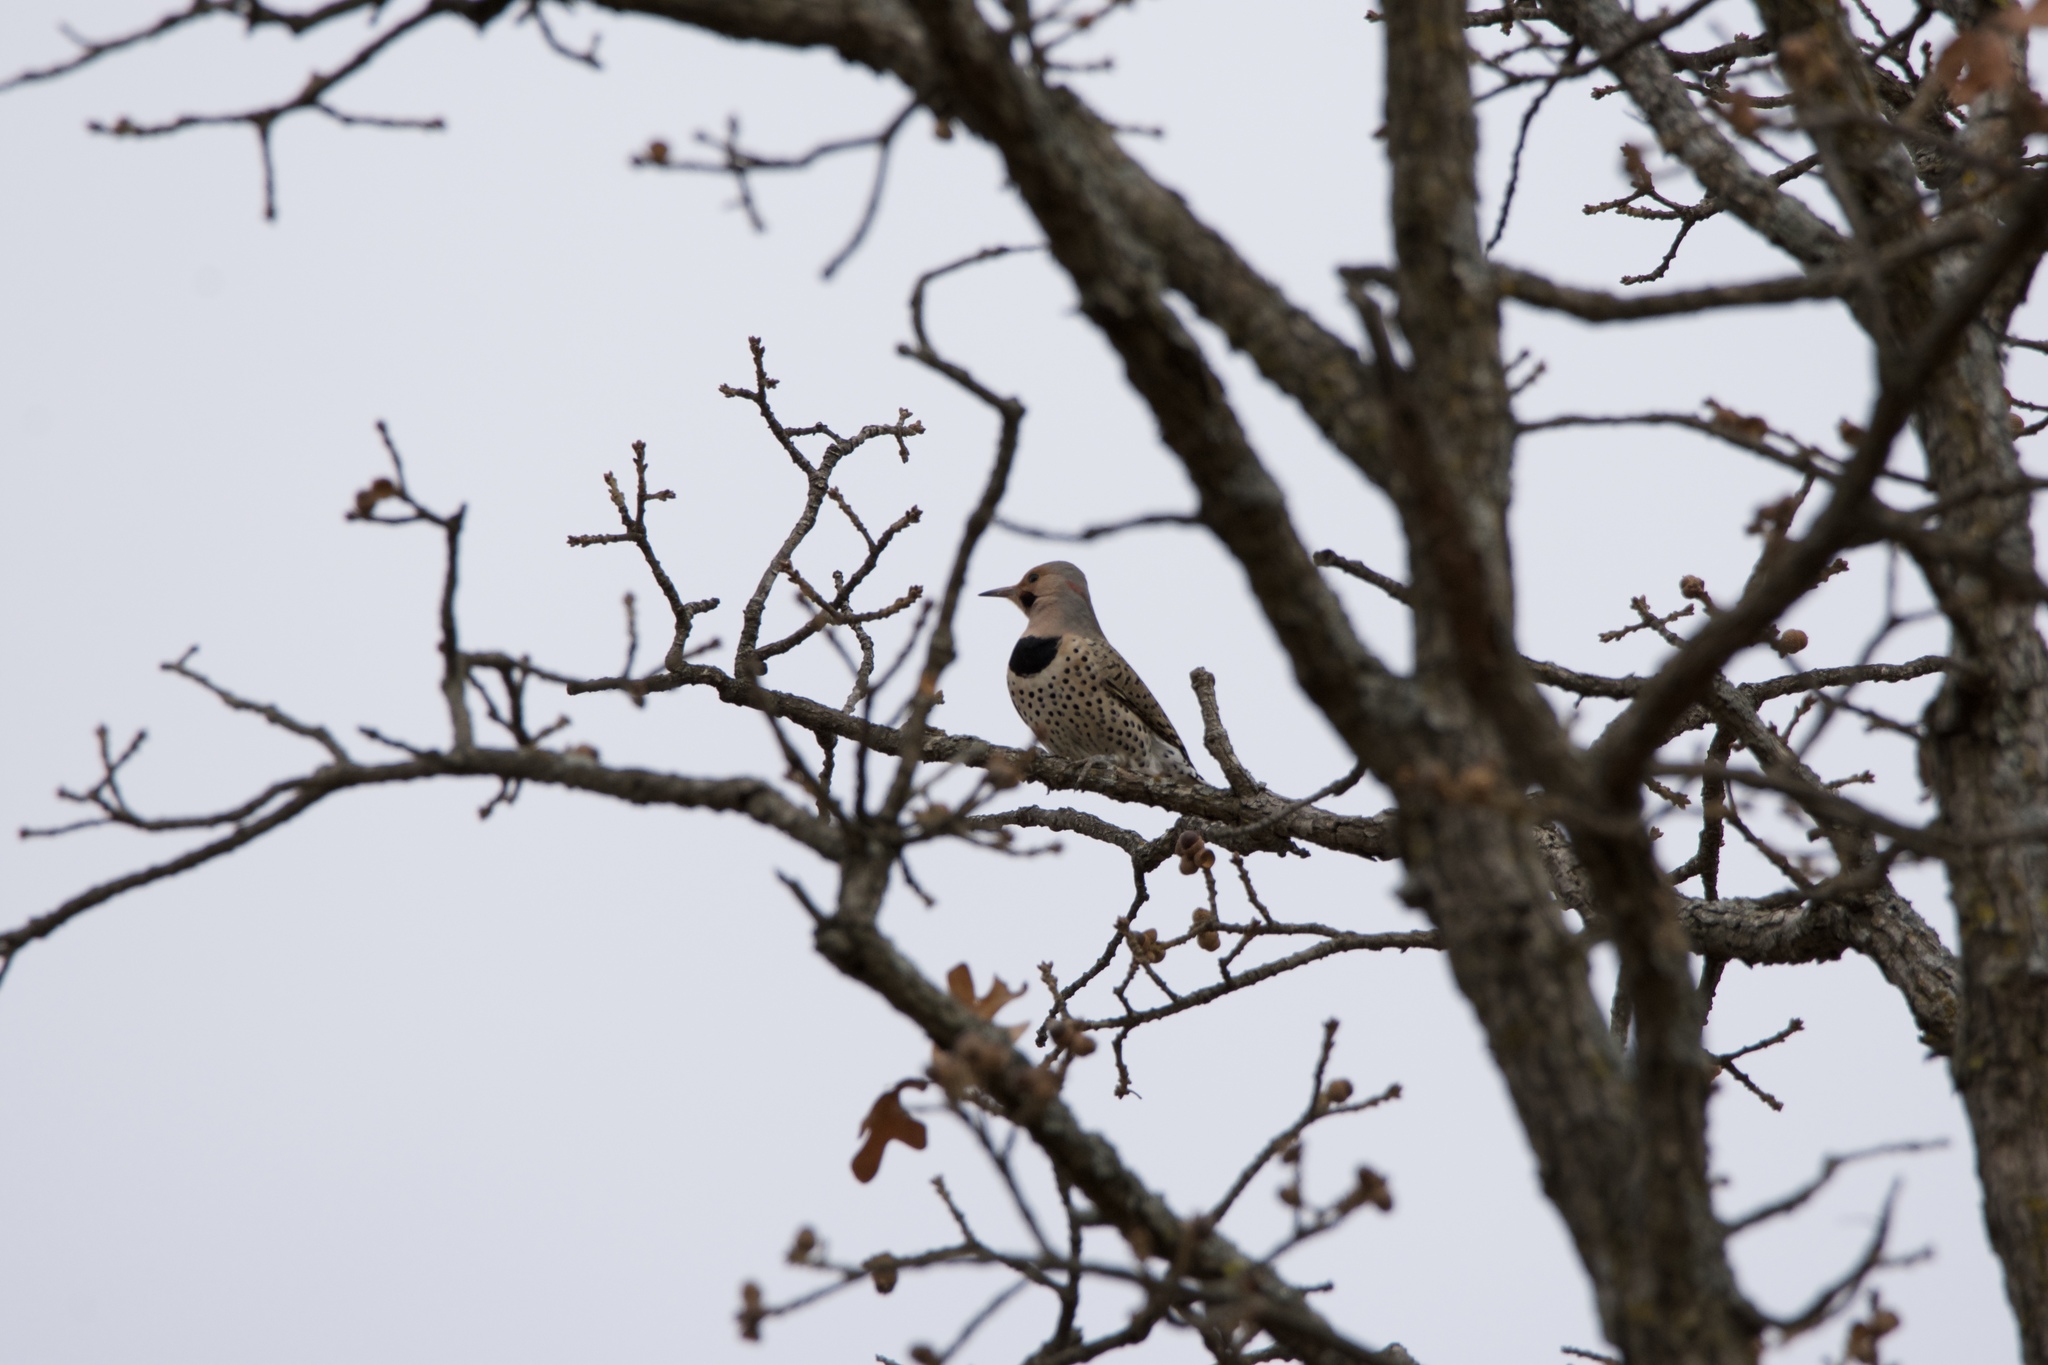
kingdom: Animalia
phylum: Chordata
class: Aves
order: Piciformes
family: Picidae
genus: Colaptes
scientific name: Colaptes auratus
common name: Northern flicker
